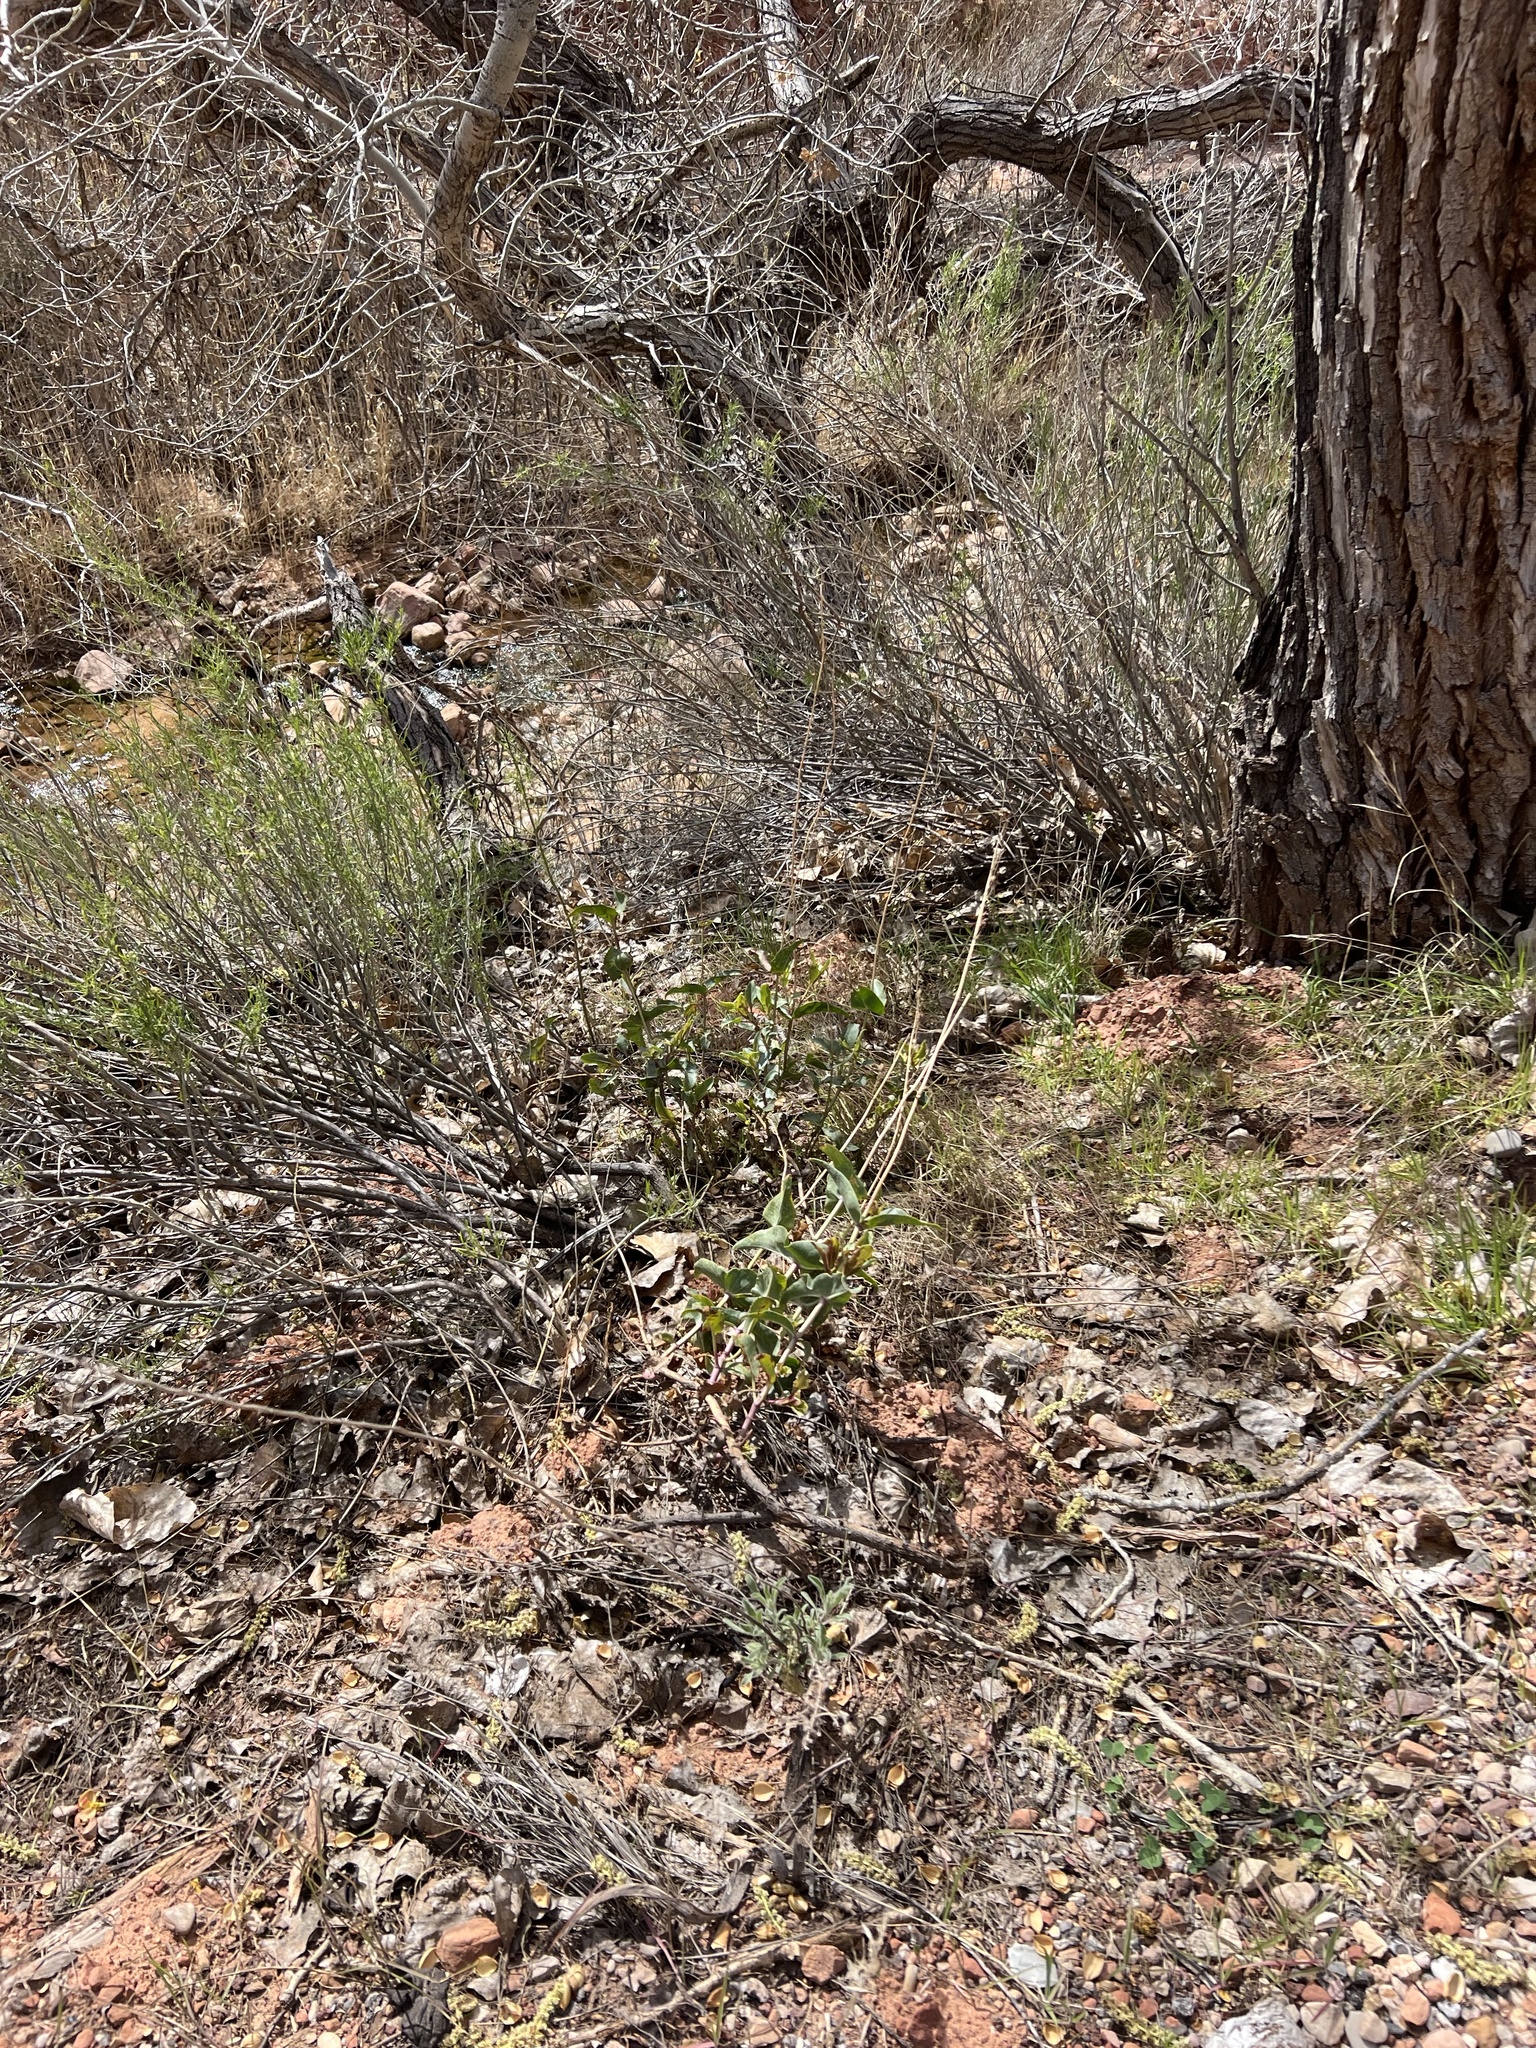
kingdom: Plantae
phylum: Tracheophyta
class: Magnoliopsida
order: Lamiales
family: Plantaginaceae
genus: Penstemon
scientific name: Penstemon palmeri
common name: Palmer penstemon
